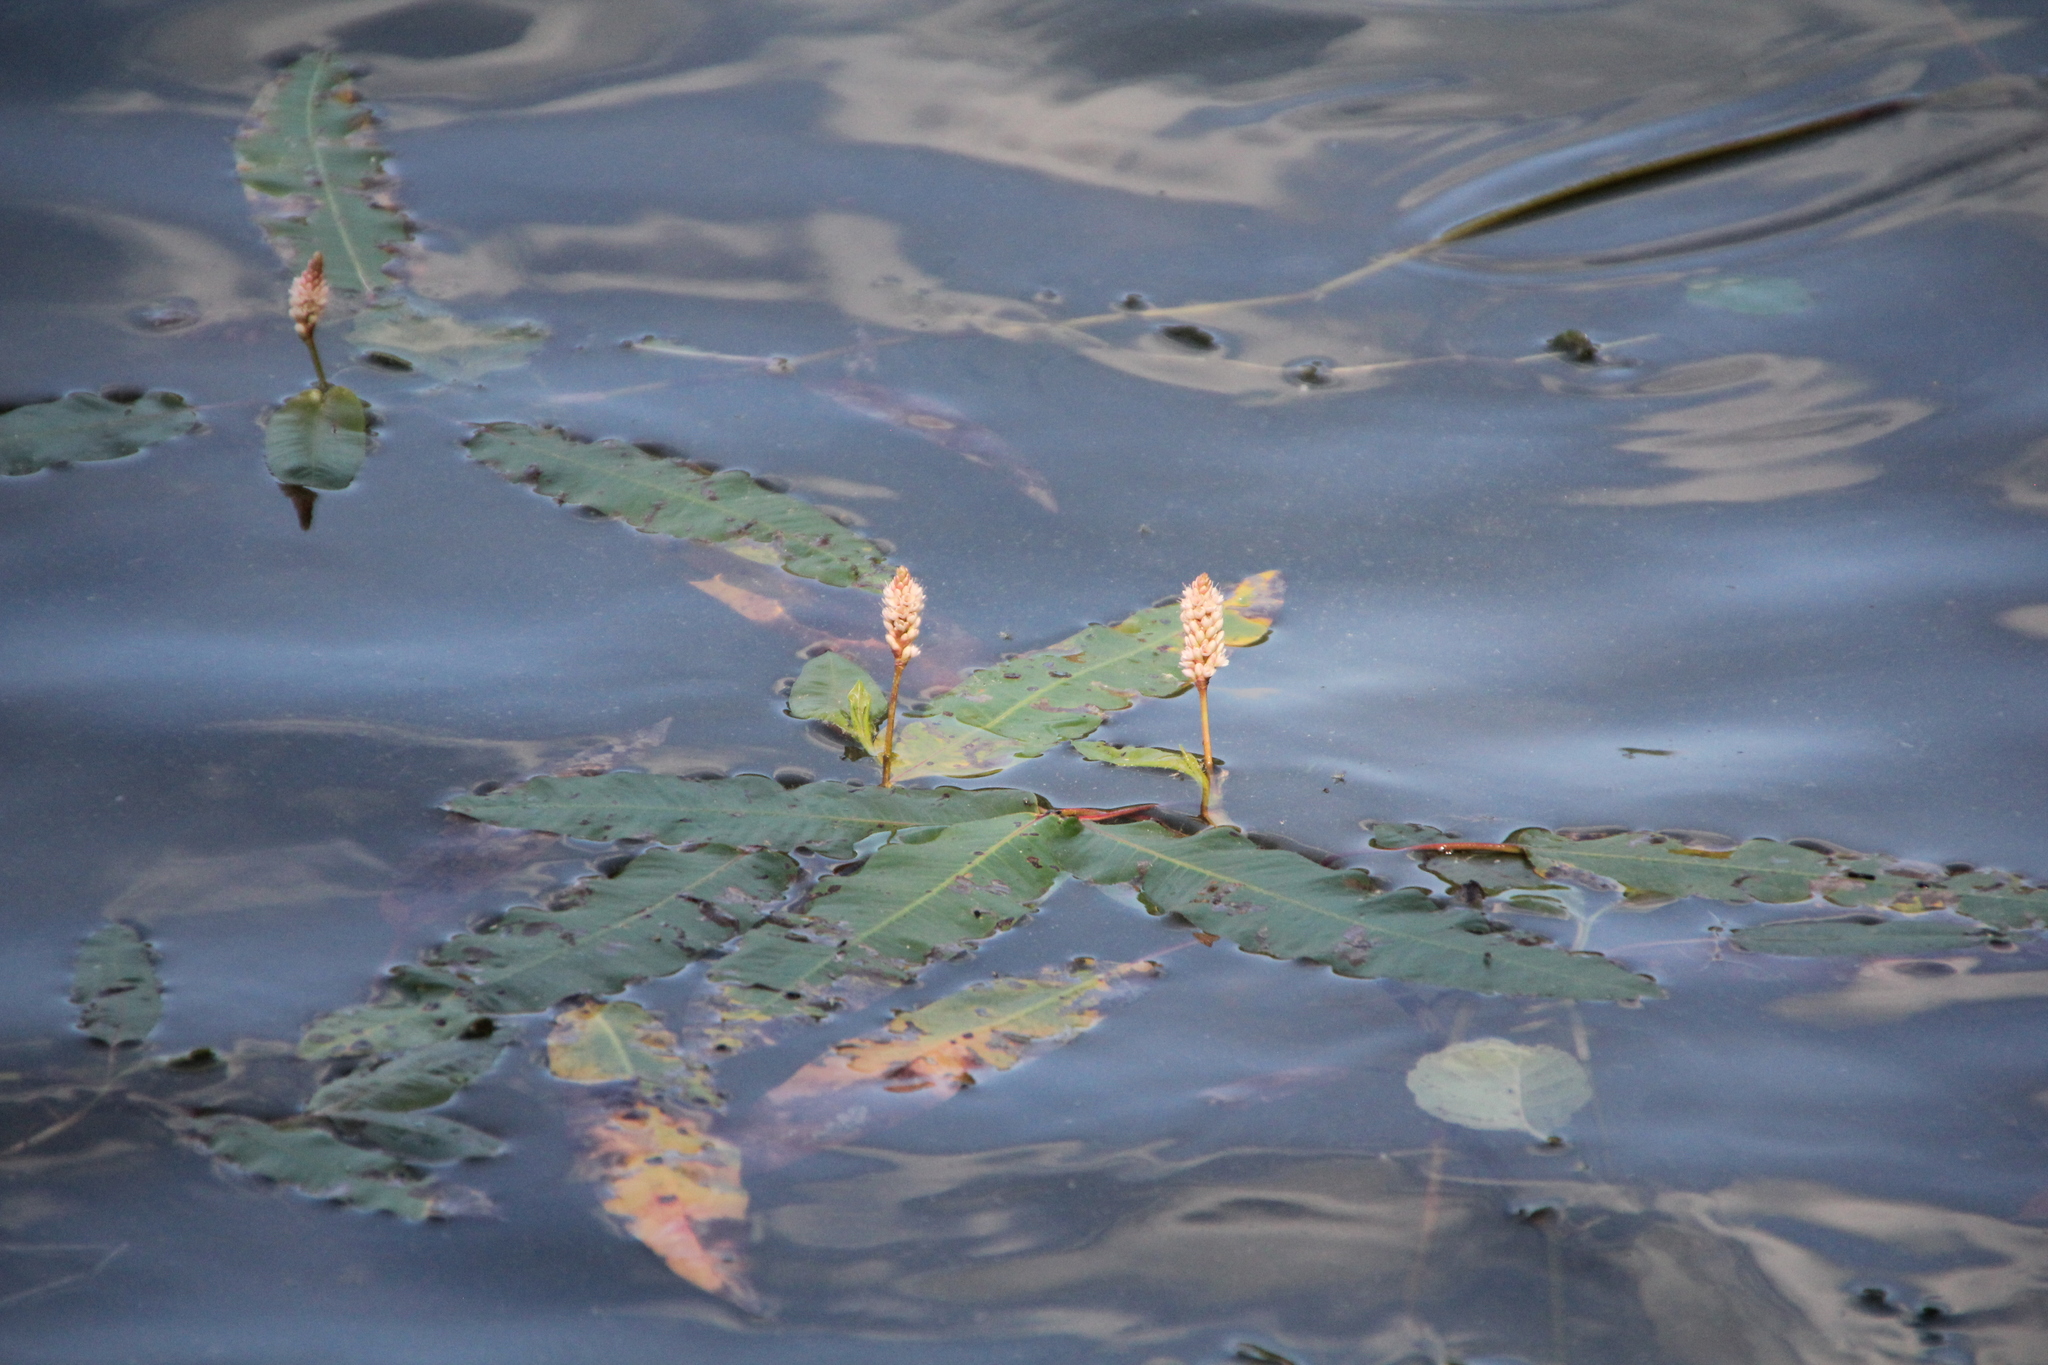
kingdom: Plantae
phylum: Tracheophyta
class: Magnoliopsida
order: Caryophyllales
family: Polygonaceae
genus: Persicaria
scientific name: Persicaria amphibia
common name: Amphibious bistort
